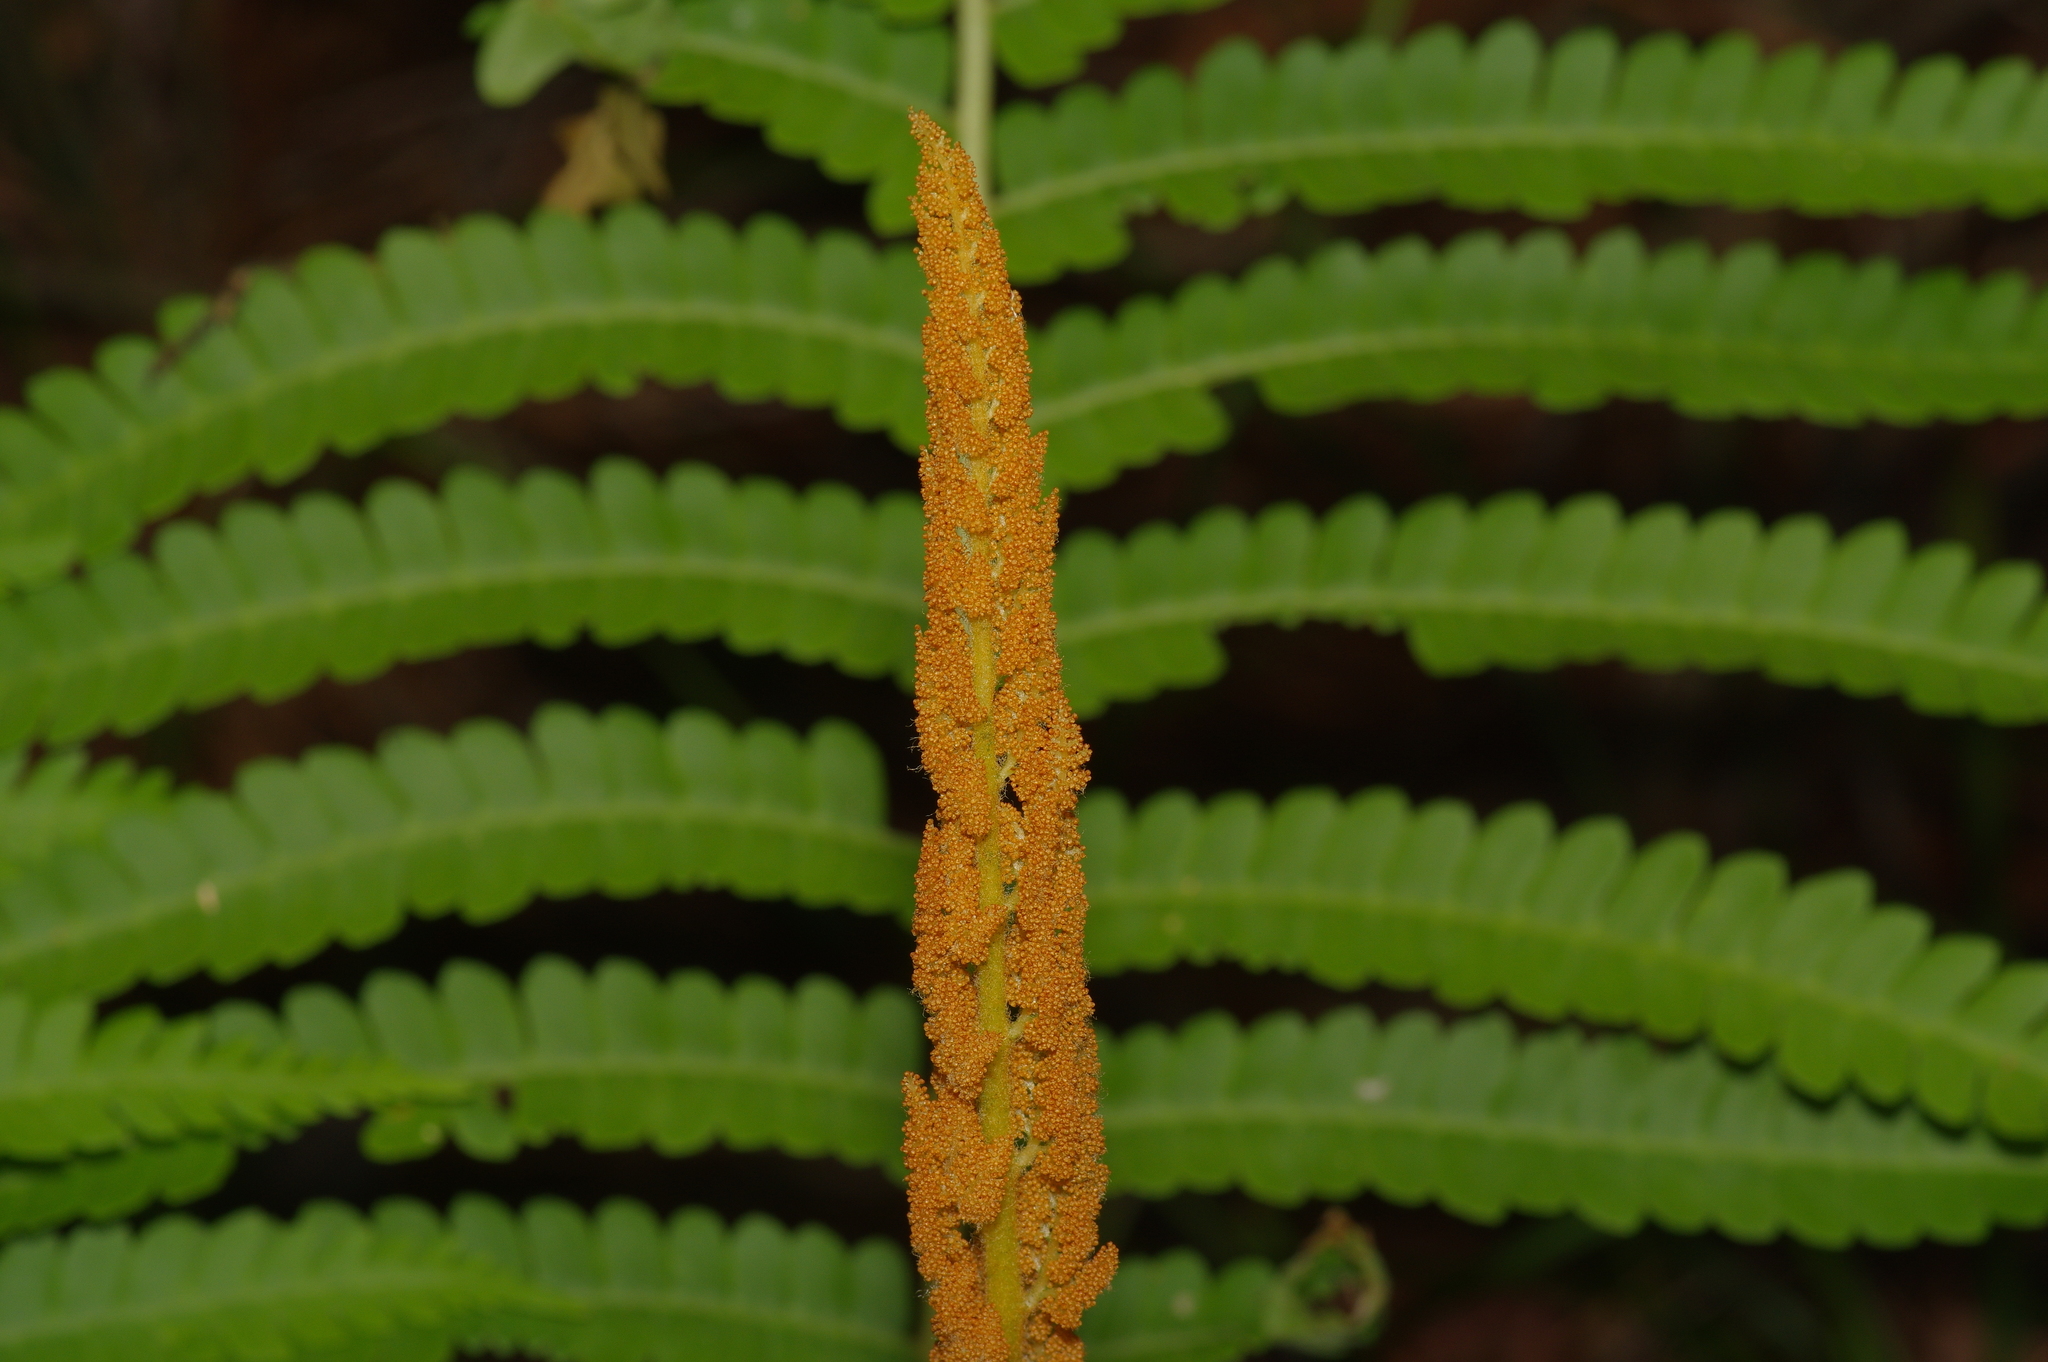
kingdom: Plantae
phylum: Tracheophyta
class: Polypodiopsida
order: Osmundales
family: Osmundaceae
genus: Osmundastrum
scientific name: Osmundastrum cinnamomeum
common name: Cinnamon fern
